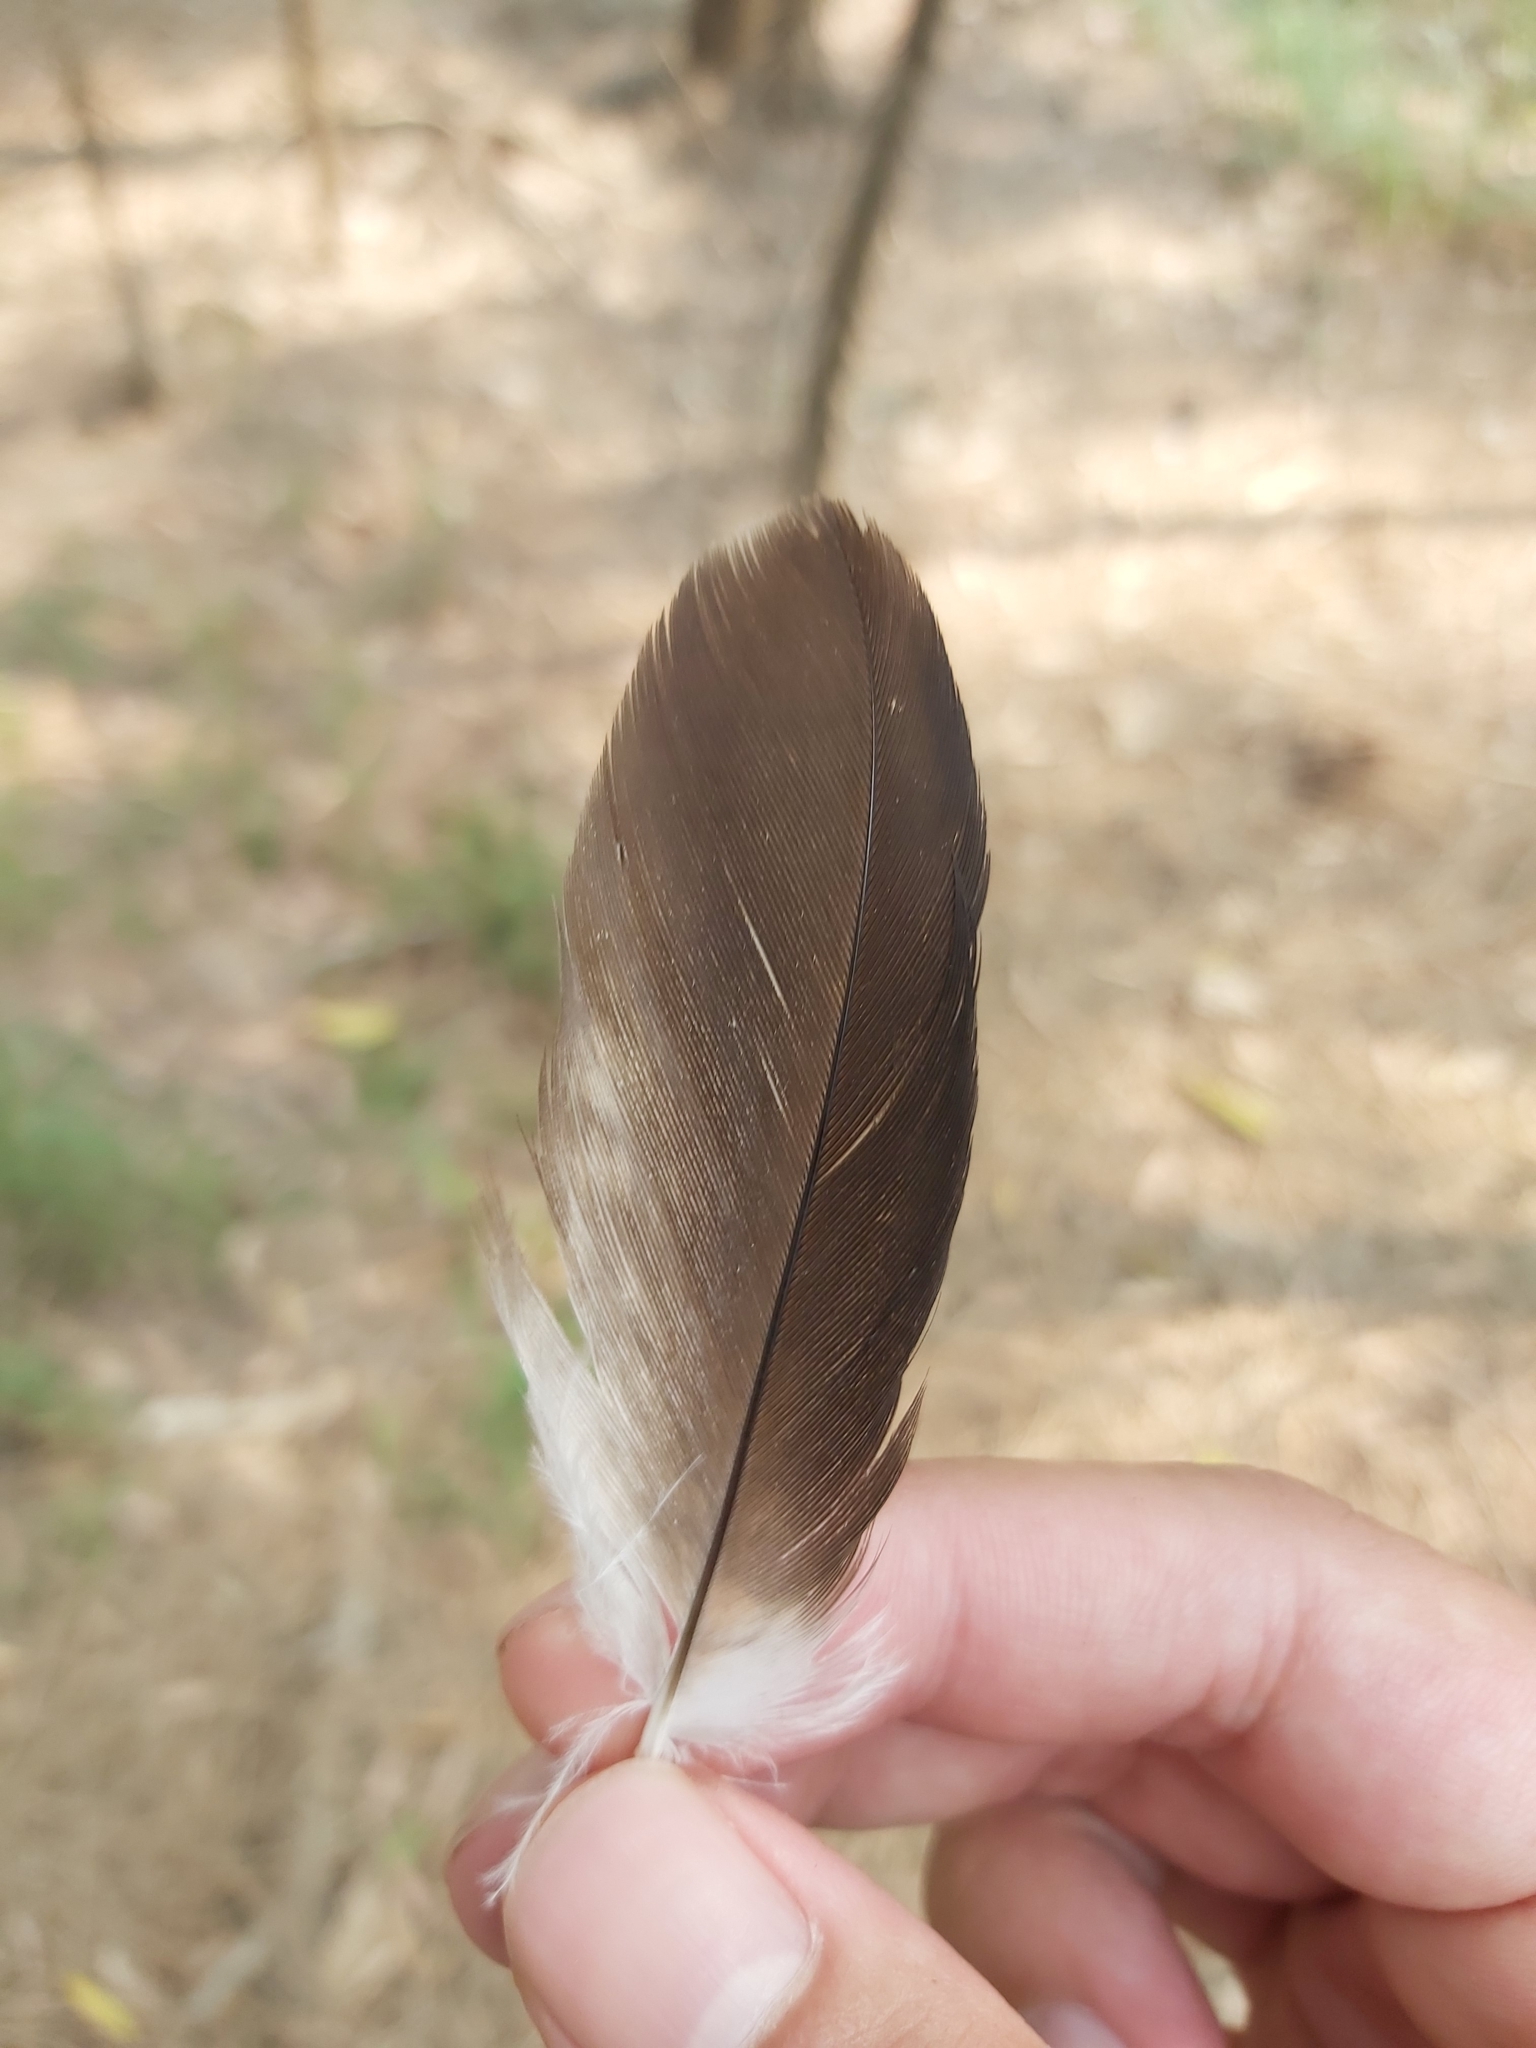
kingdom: Animalia
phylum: Chordata
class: Aves
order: Coraciiformes
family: Alcedinidae
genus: Dacelo
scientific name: Dacelo novaeguineae
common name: Laughing kookaburra
